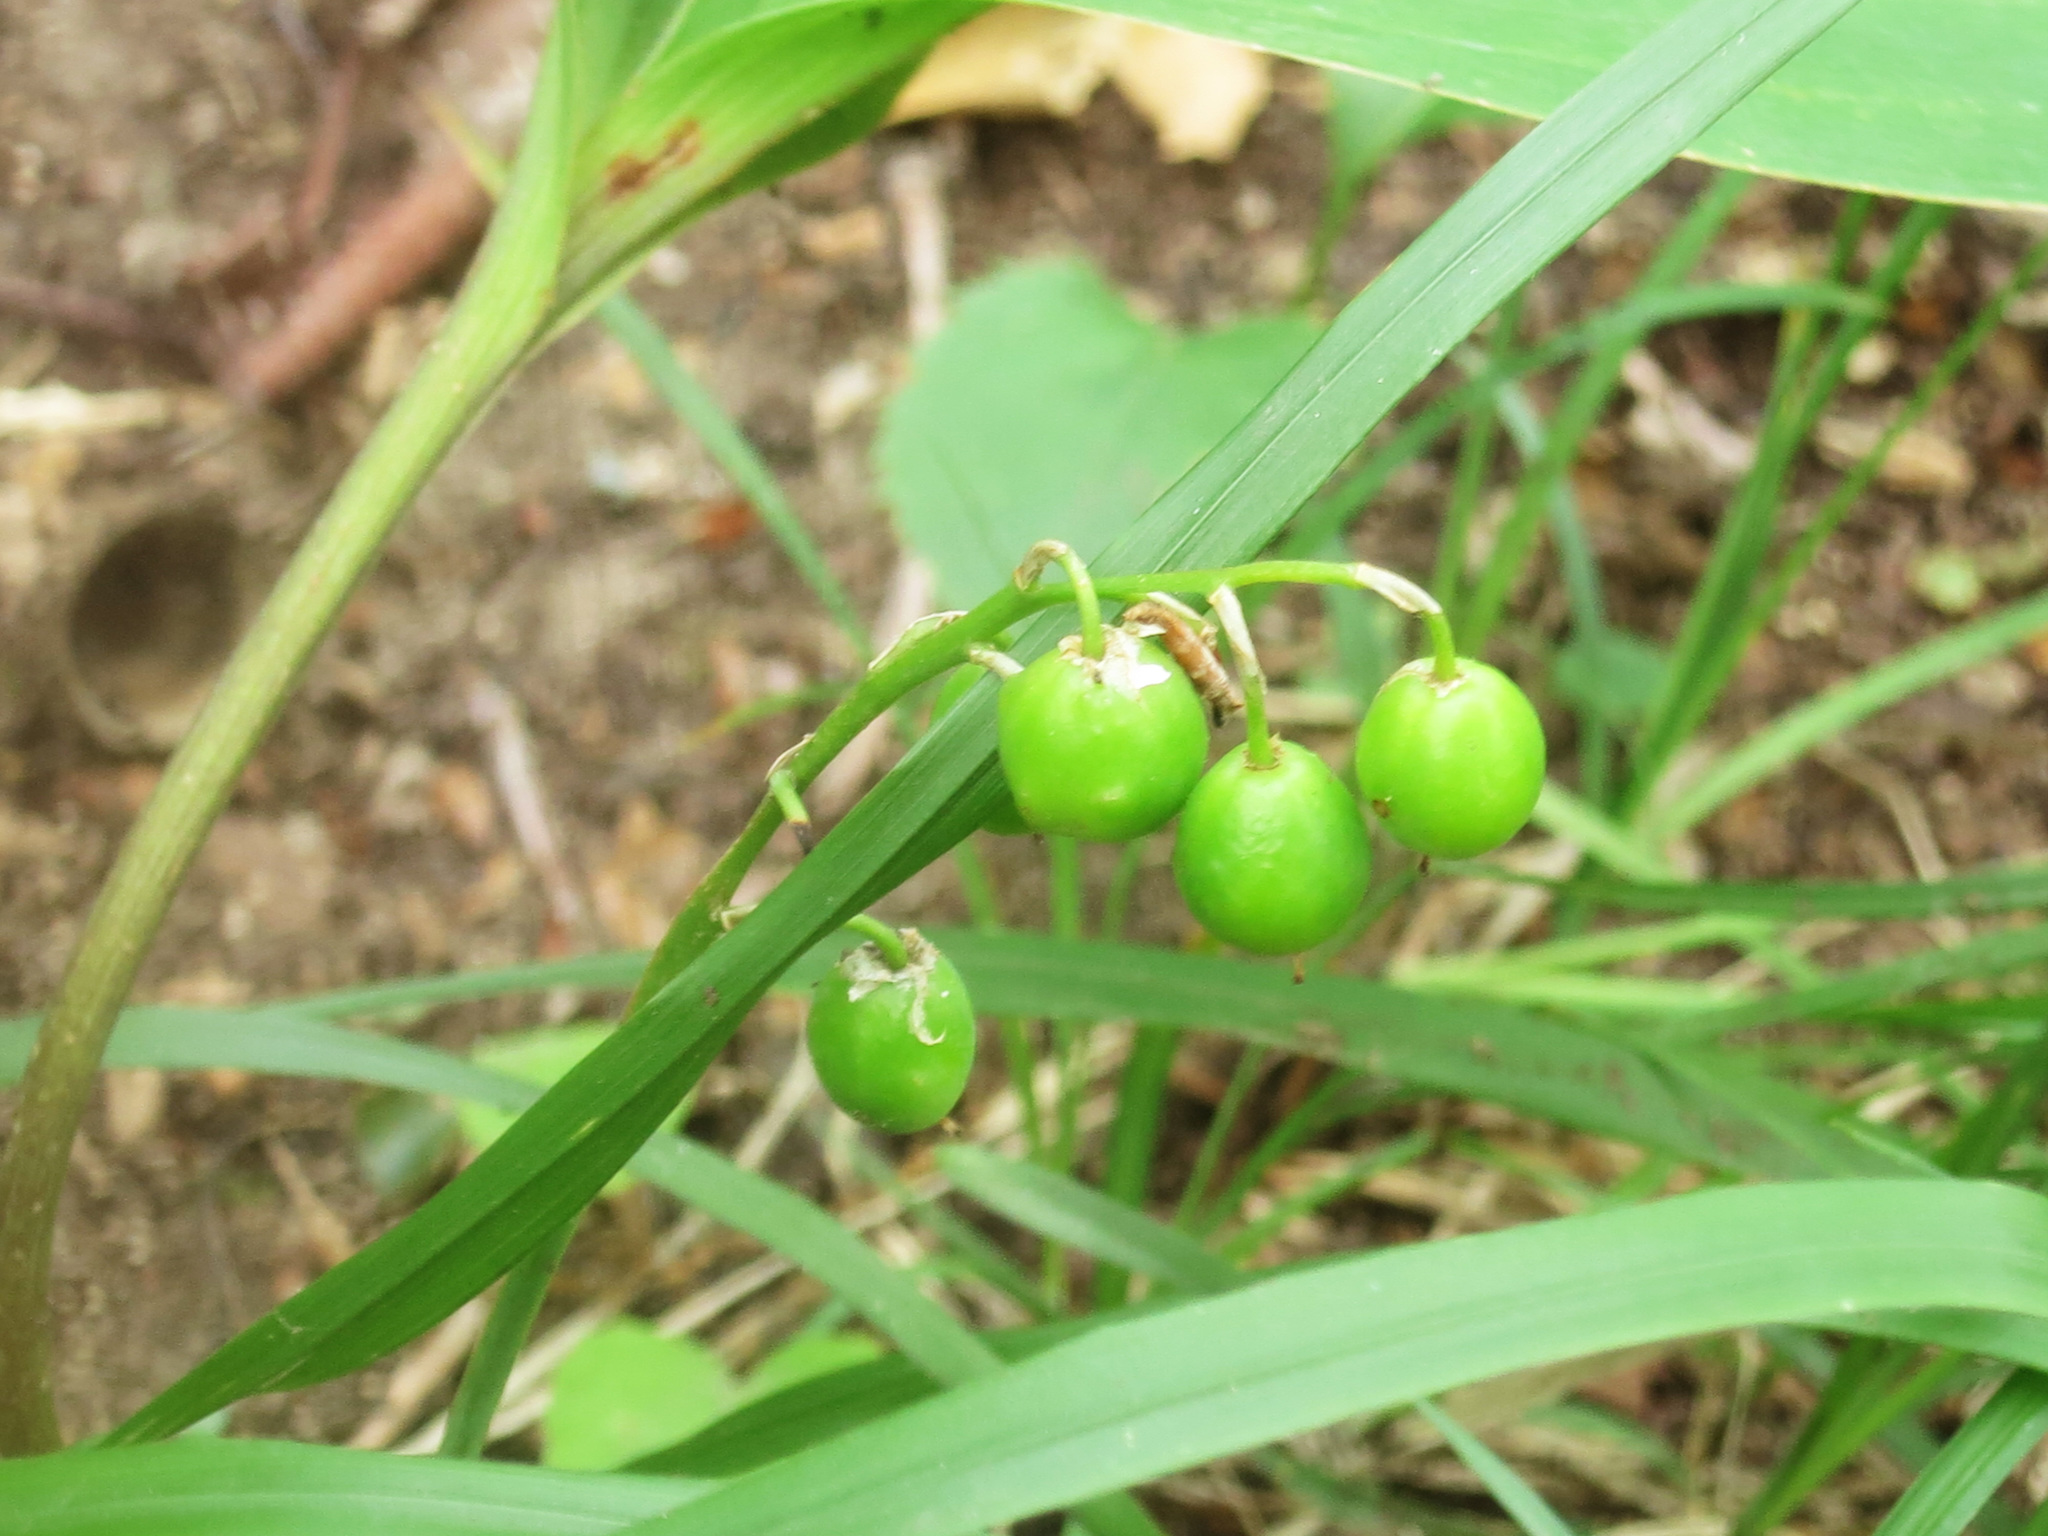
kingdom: Plantae
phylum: Tracheophyta
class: Liliopsida
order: Asparagales
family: Asparagaceae
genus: Convallaria
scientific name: Convallaria keiskei
